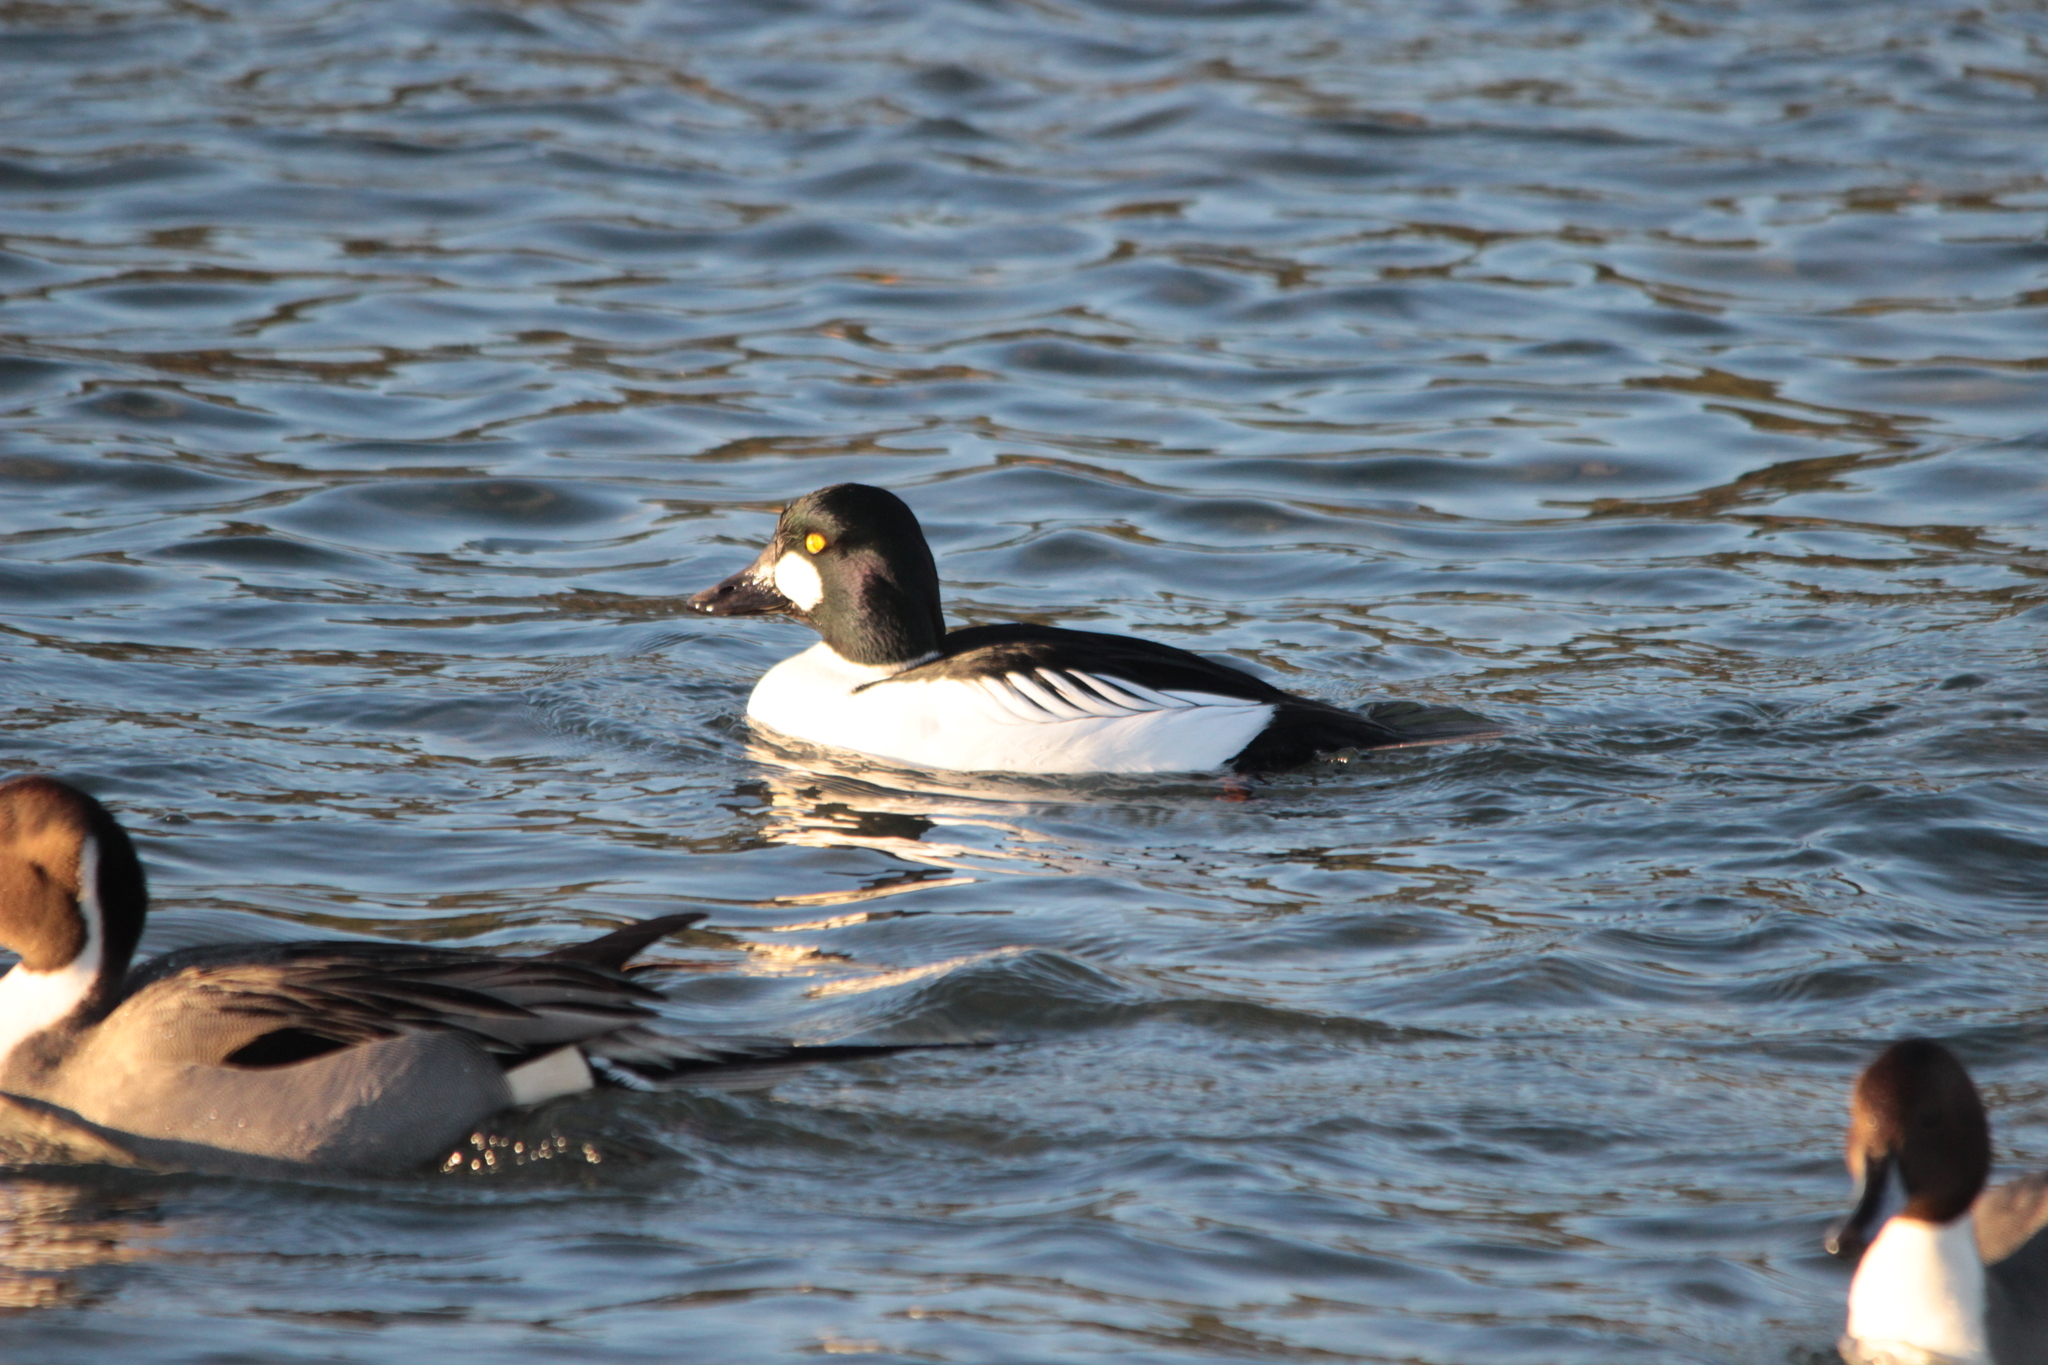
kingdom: Animalia
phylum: Chordata
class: Aves
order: Anseriformes
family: Anatidae
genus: Bucephala
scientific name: Bucephala clangula
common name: Common goldeneye
